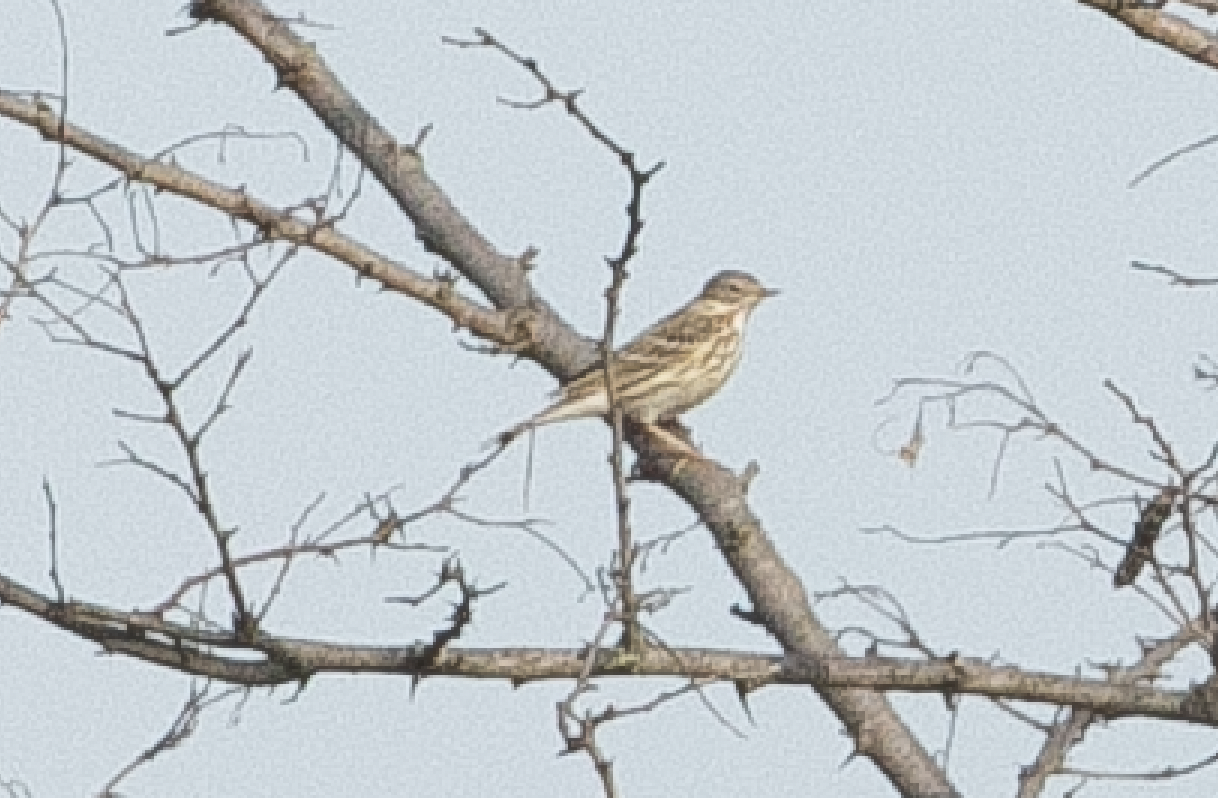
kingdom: Animalia
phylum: Chordata
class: Aves
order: Passeriformes
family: Motacillidae
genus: Anthus
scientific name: Anthus pratensis
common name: Meadow pipit
